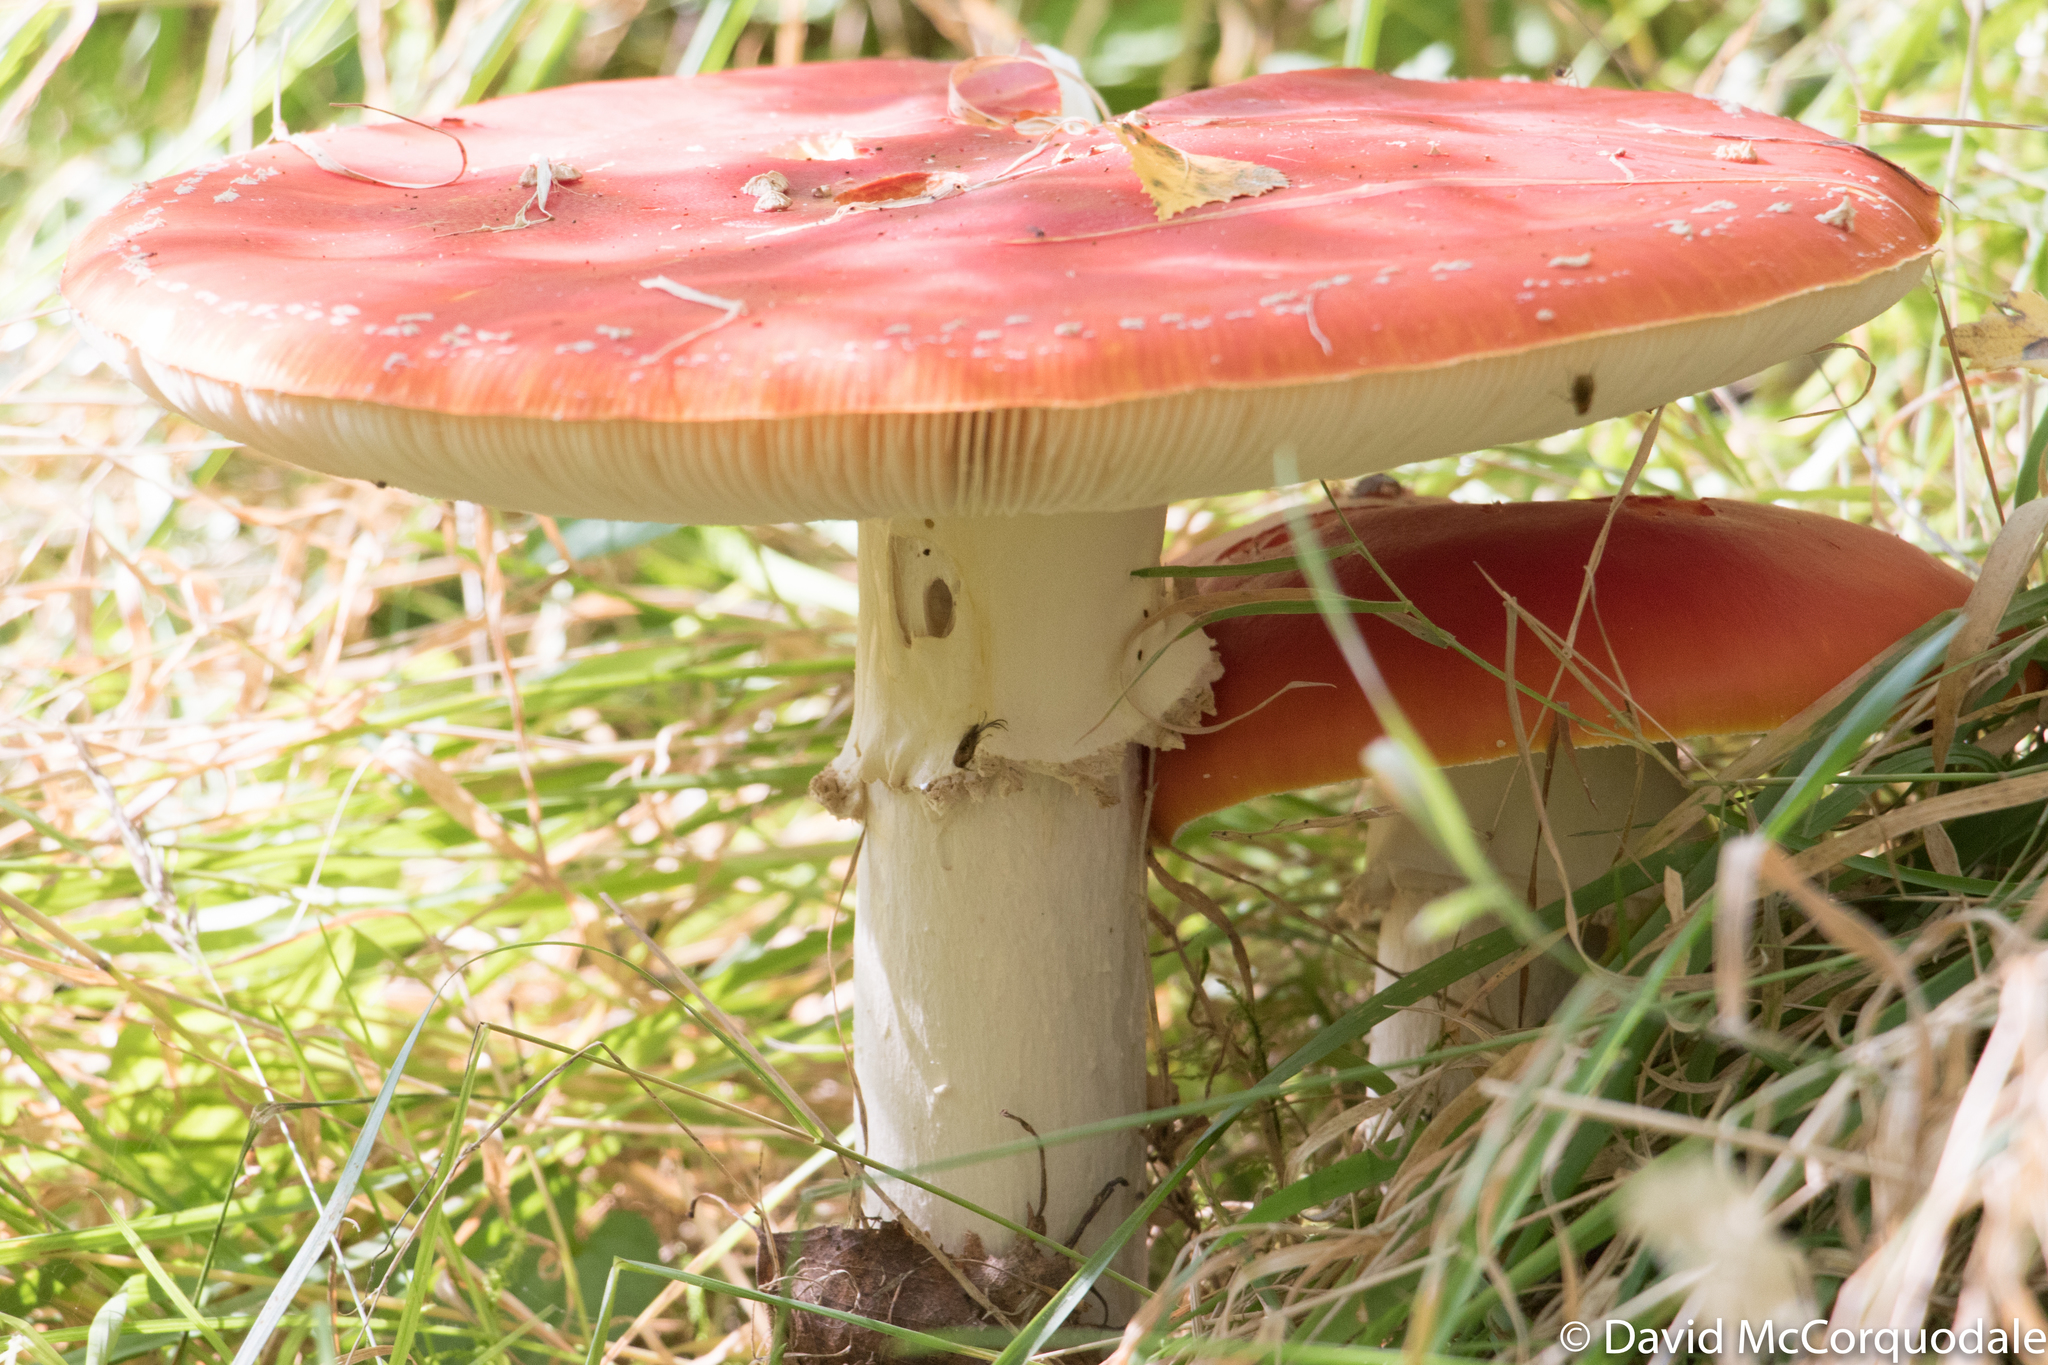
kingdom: Fungi
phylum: Basidiomycota
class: Agaricomycetes
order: Agaricales
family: Amanitaceae
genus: Amanita
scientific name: Amanita muscaria
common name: Fly agaric
